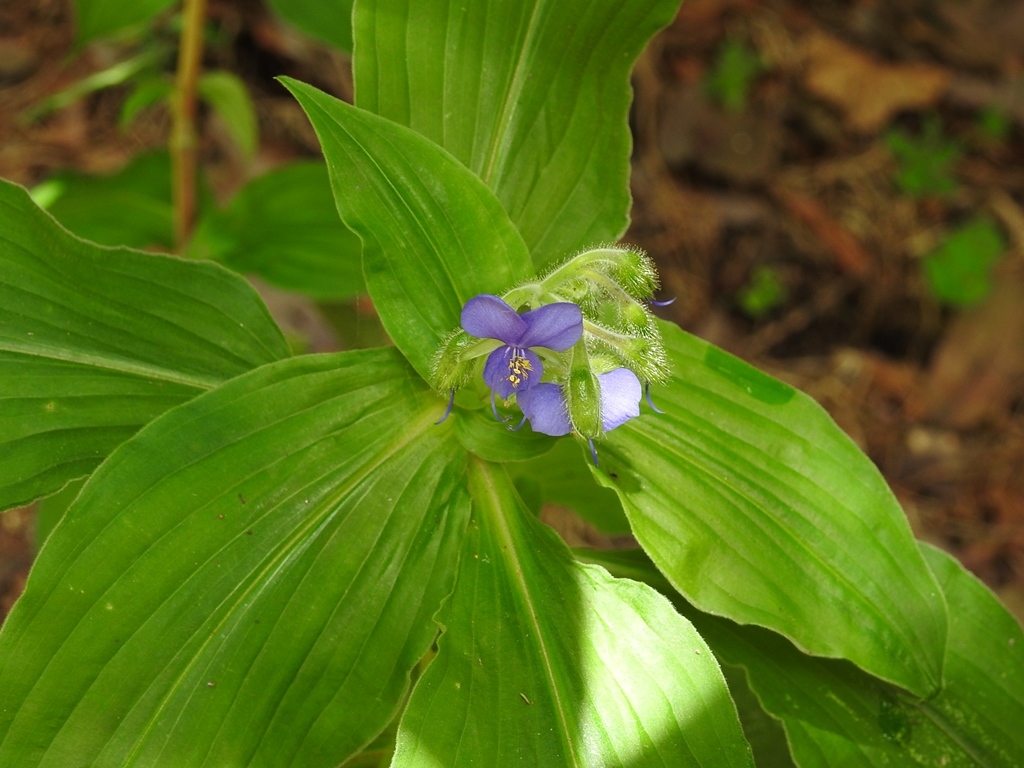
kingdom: Plantae
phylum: Tracheophyta
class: Liliopsida
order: Commelinales
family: Commelinaceae
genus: Tinantia
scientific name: Tinantia erecta
